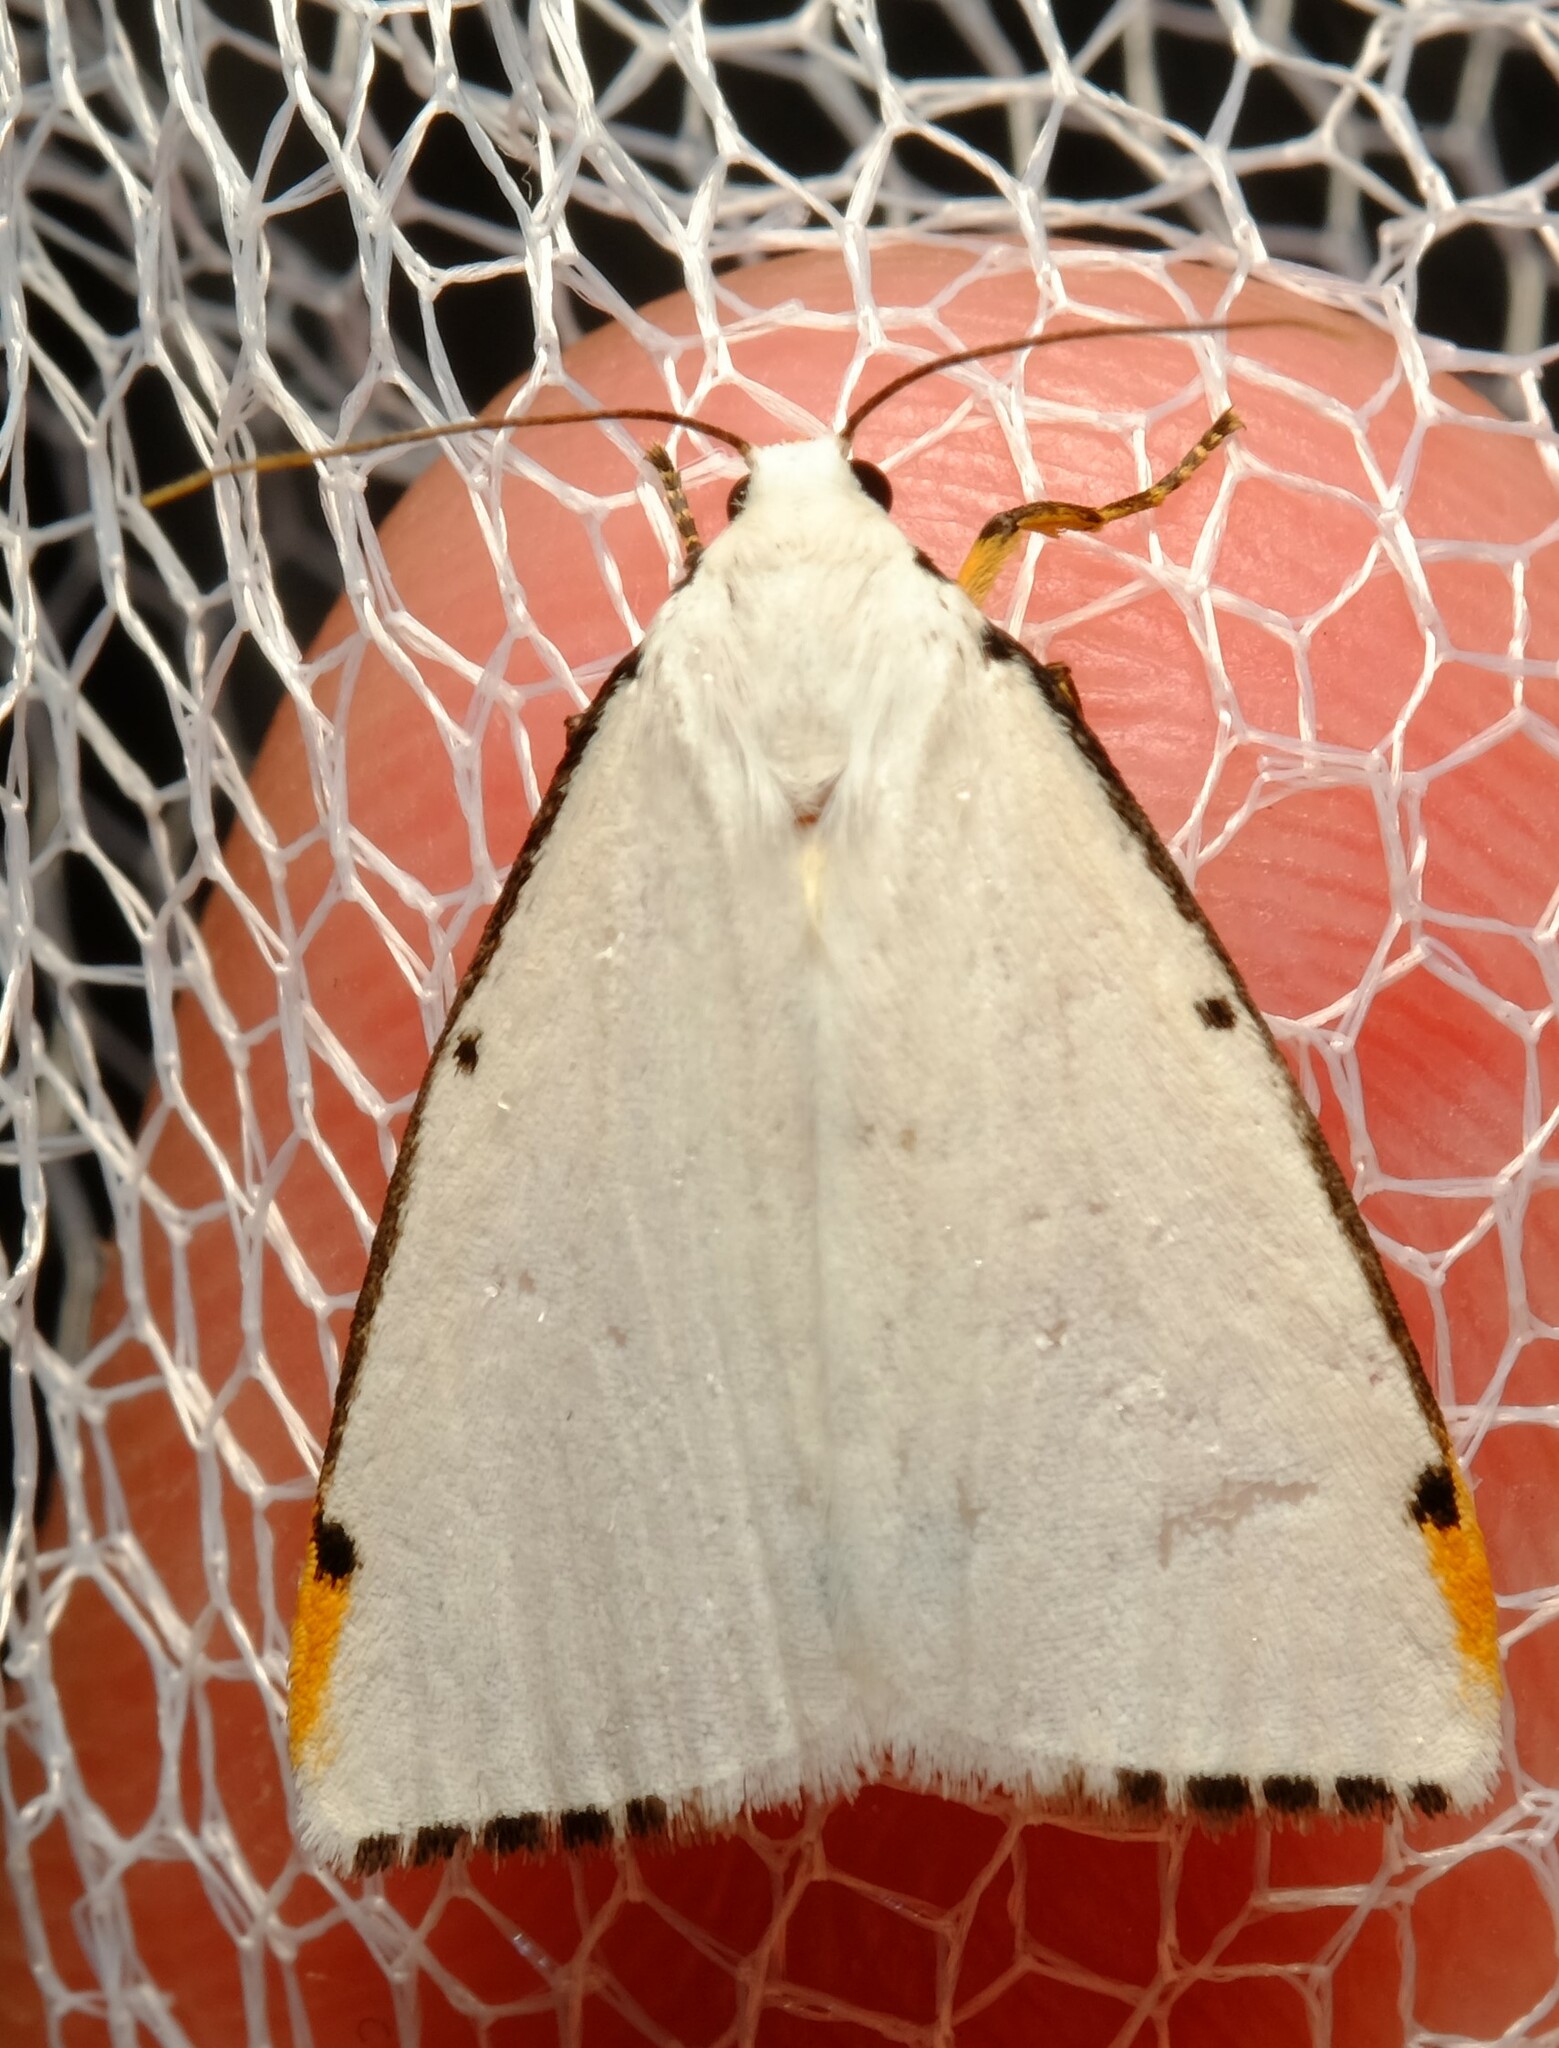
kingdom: Animalia
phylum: Arthropoda
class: Insecta
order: Lepidoptera
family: Erebidae
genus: Termessa
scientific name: Termessa nivosa
